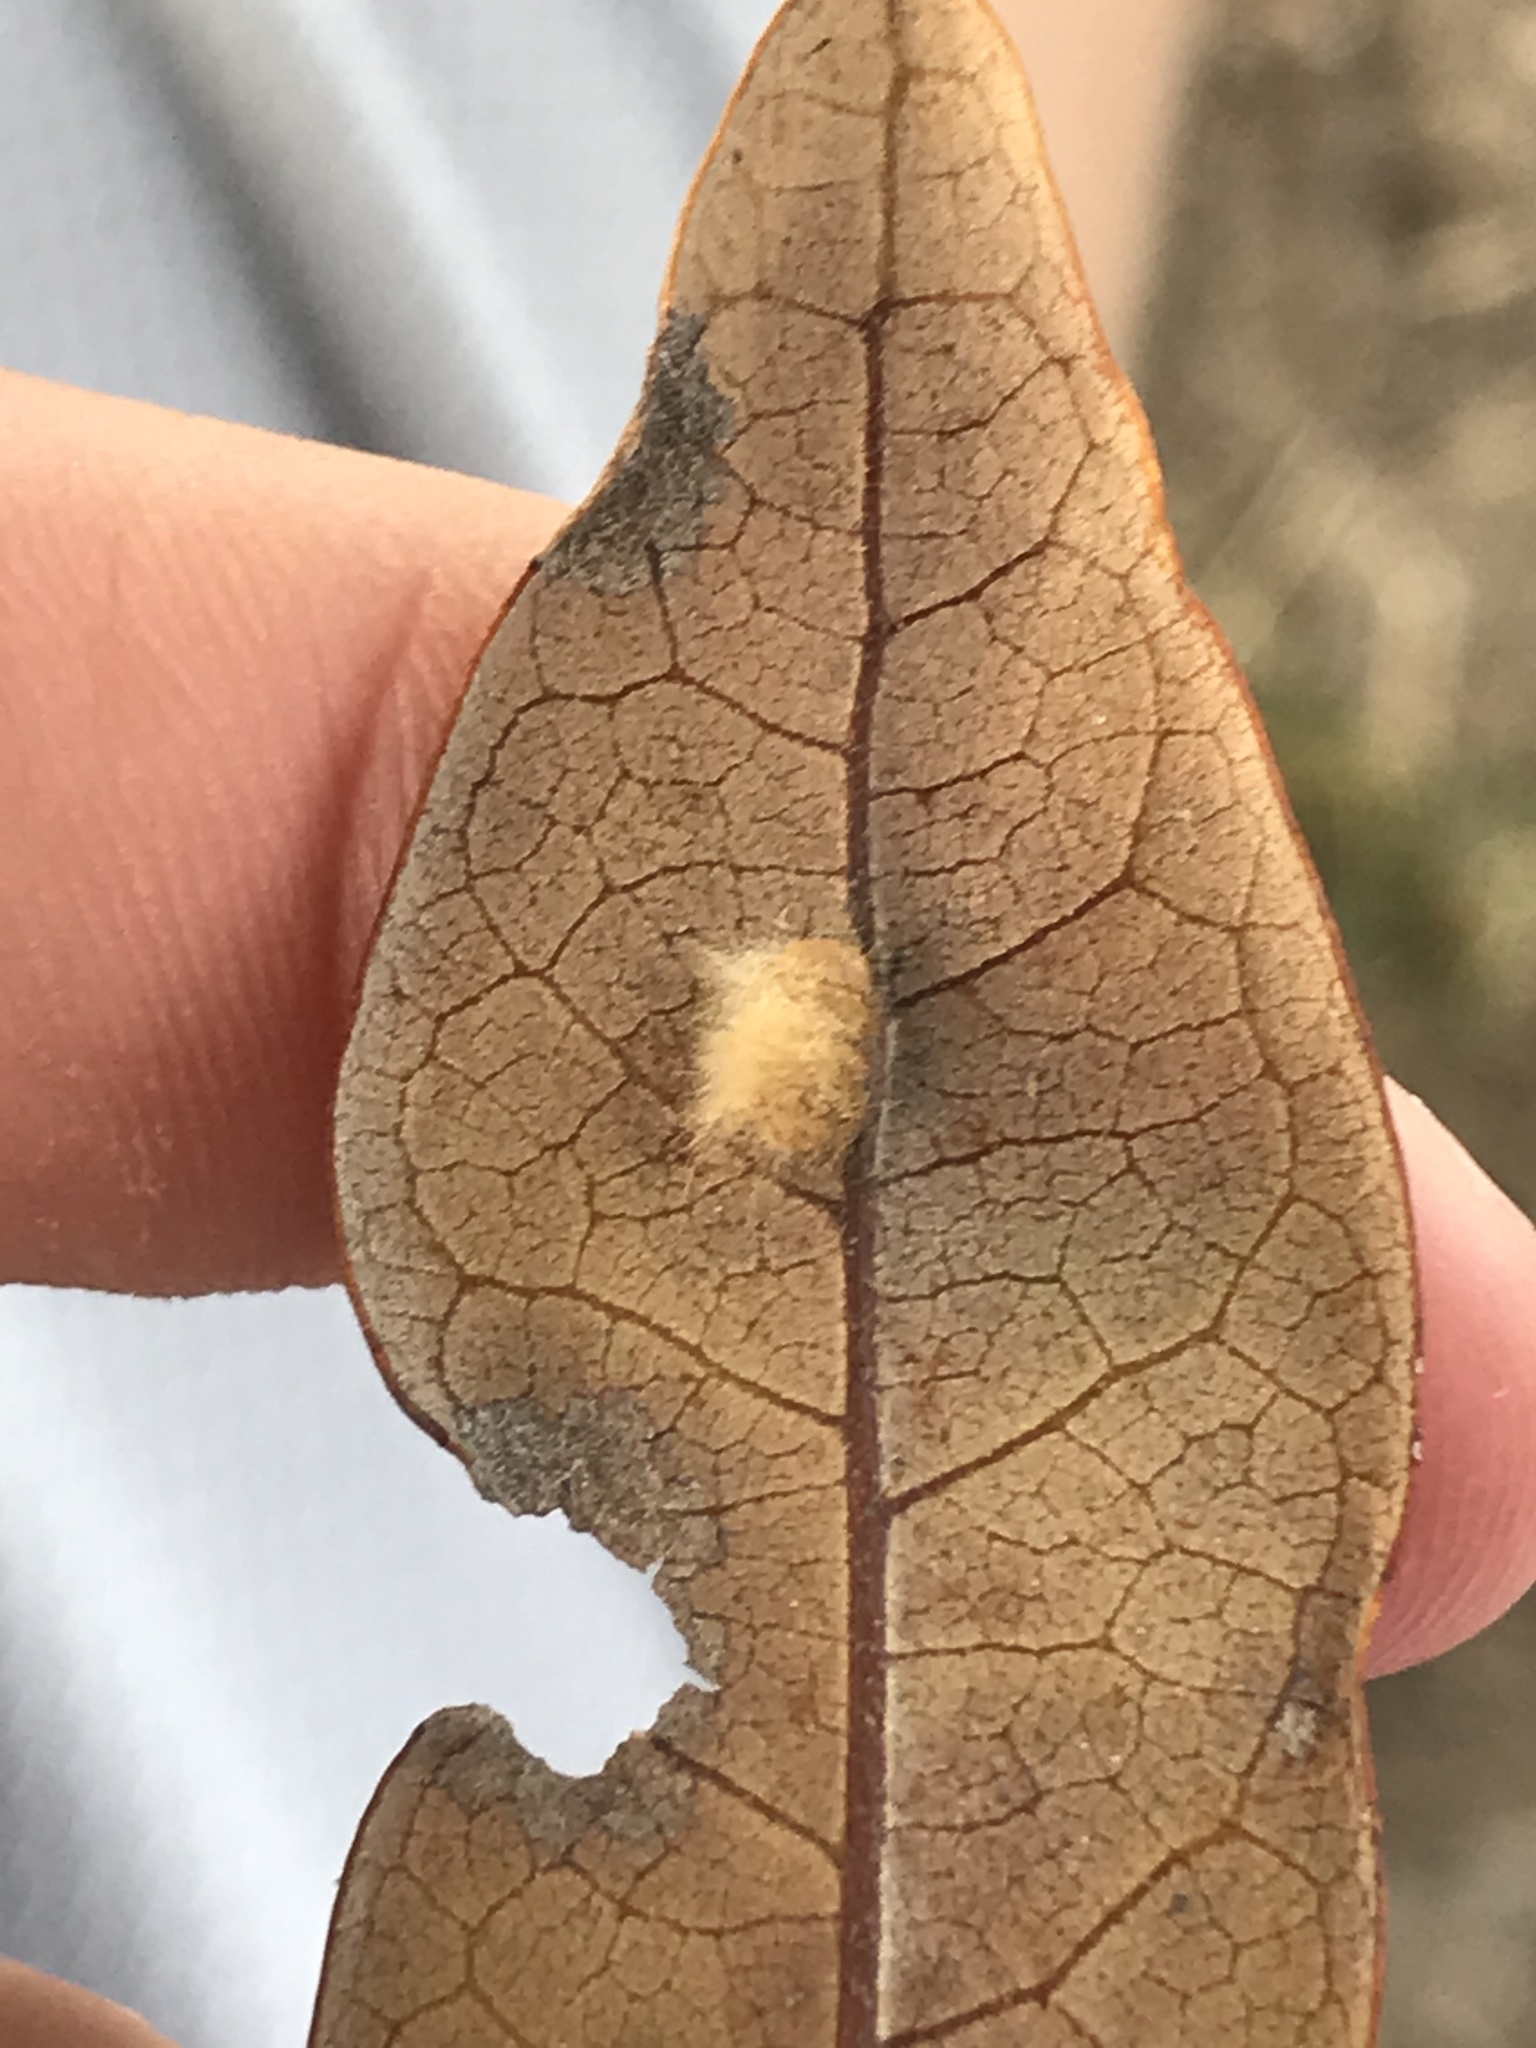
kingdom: Animalia
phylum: Arthropoda
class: Insecta
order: Hymenoptera
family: Cynipidae
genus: Andricus
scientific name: Andricus Druon quercuslanigerum
